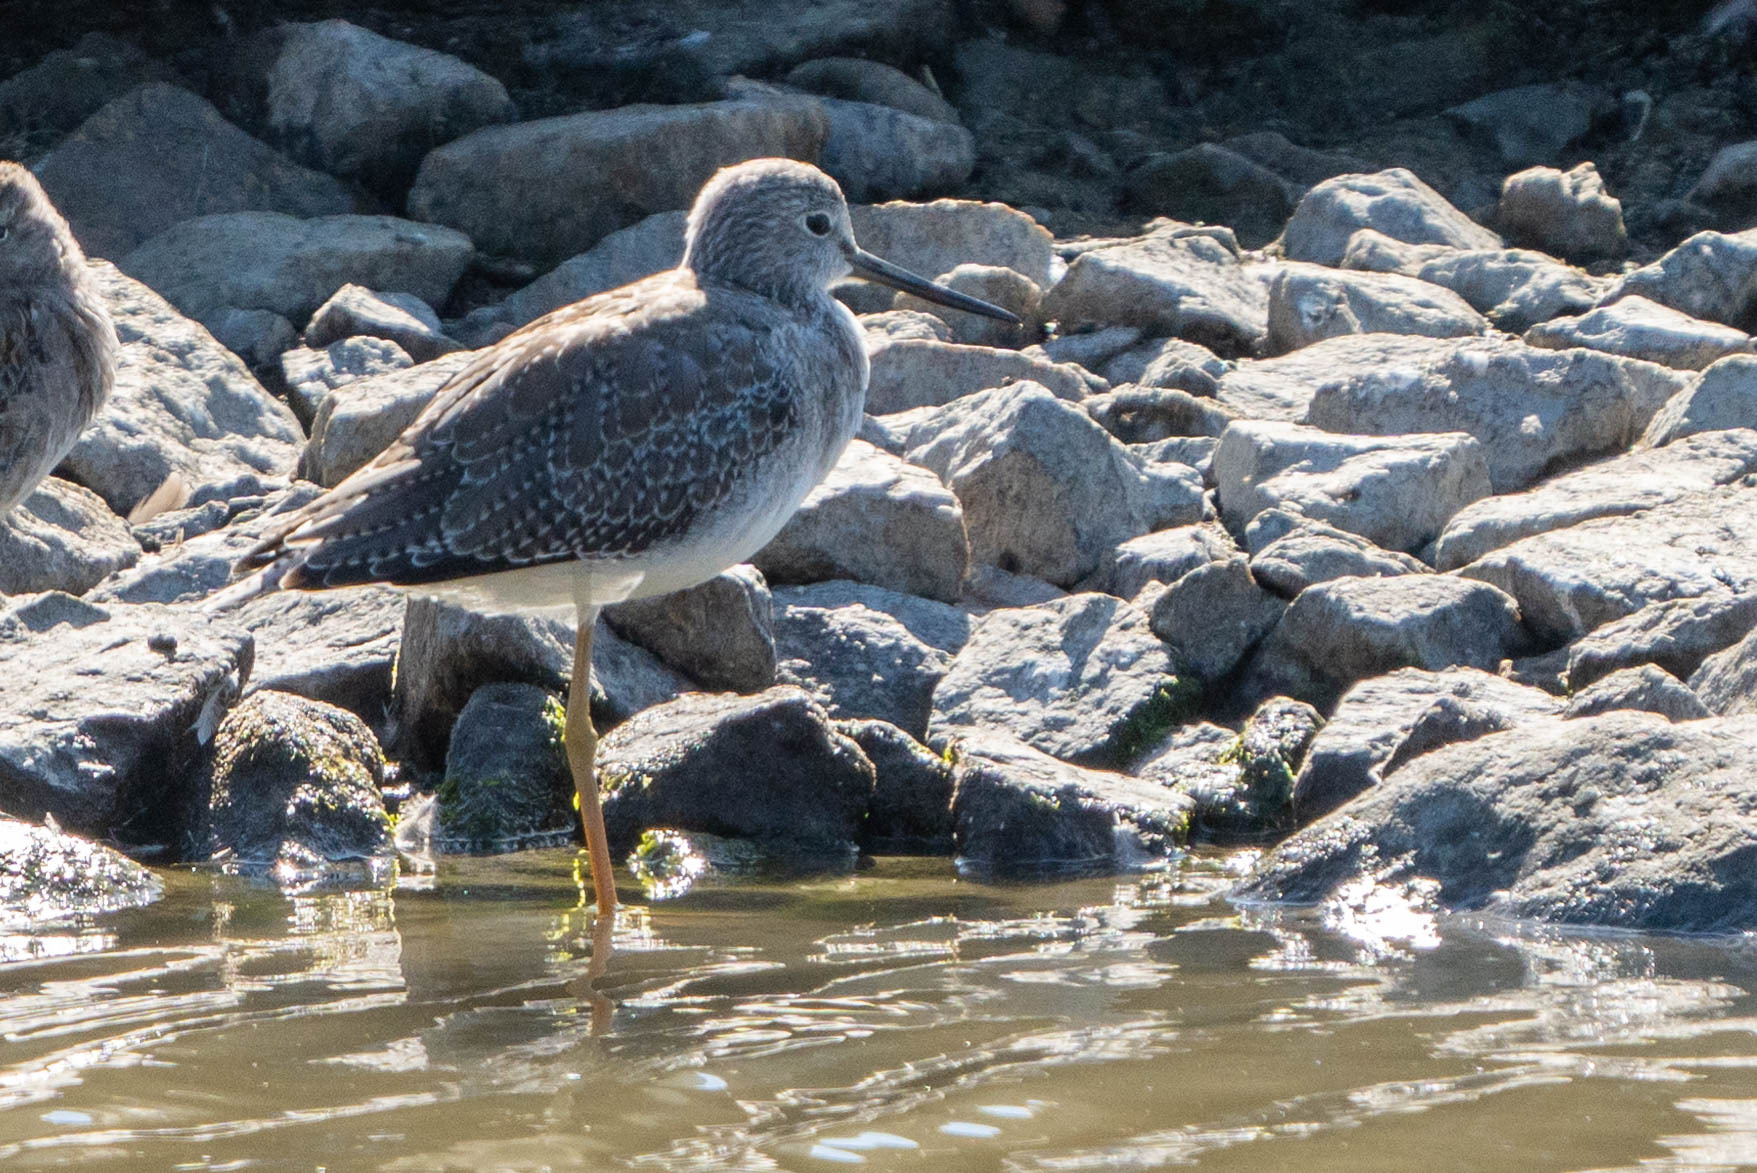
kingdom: Animalia
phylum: Chordata
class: Aves
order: Charadriiformes
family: Scolopacidae
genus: Tringa
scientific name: Tringa melanoleuca
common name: Greater yellowlegs
